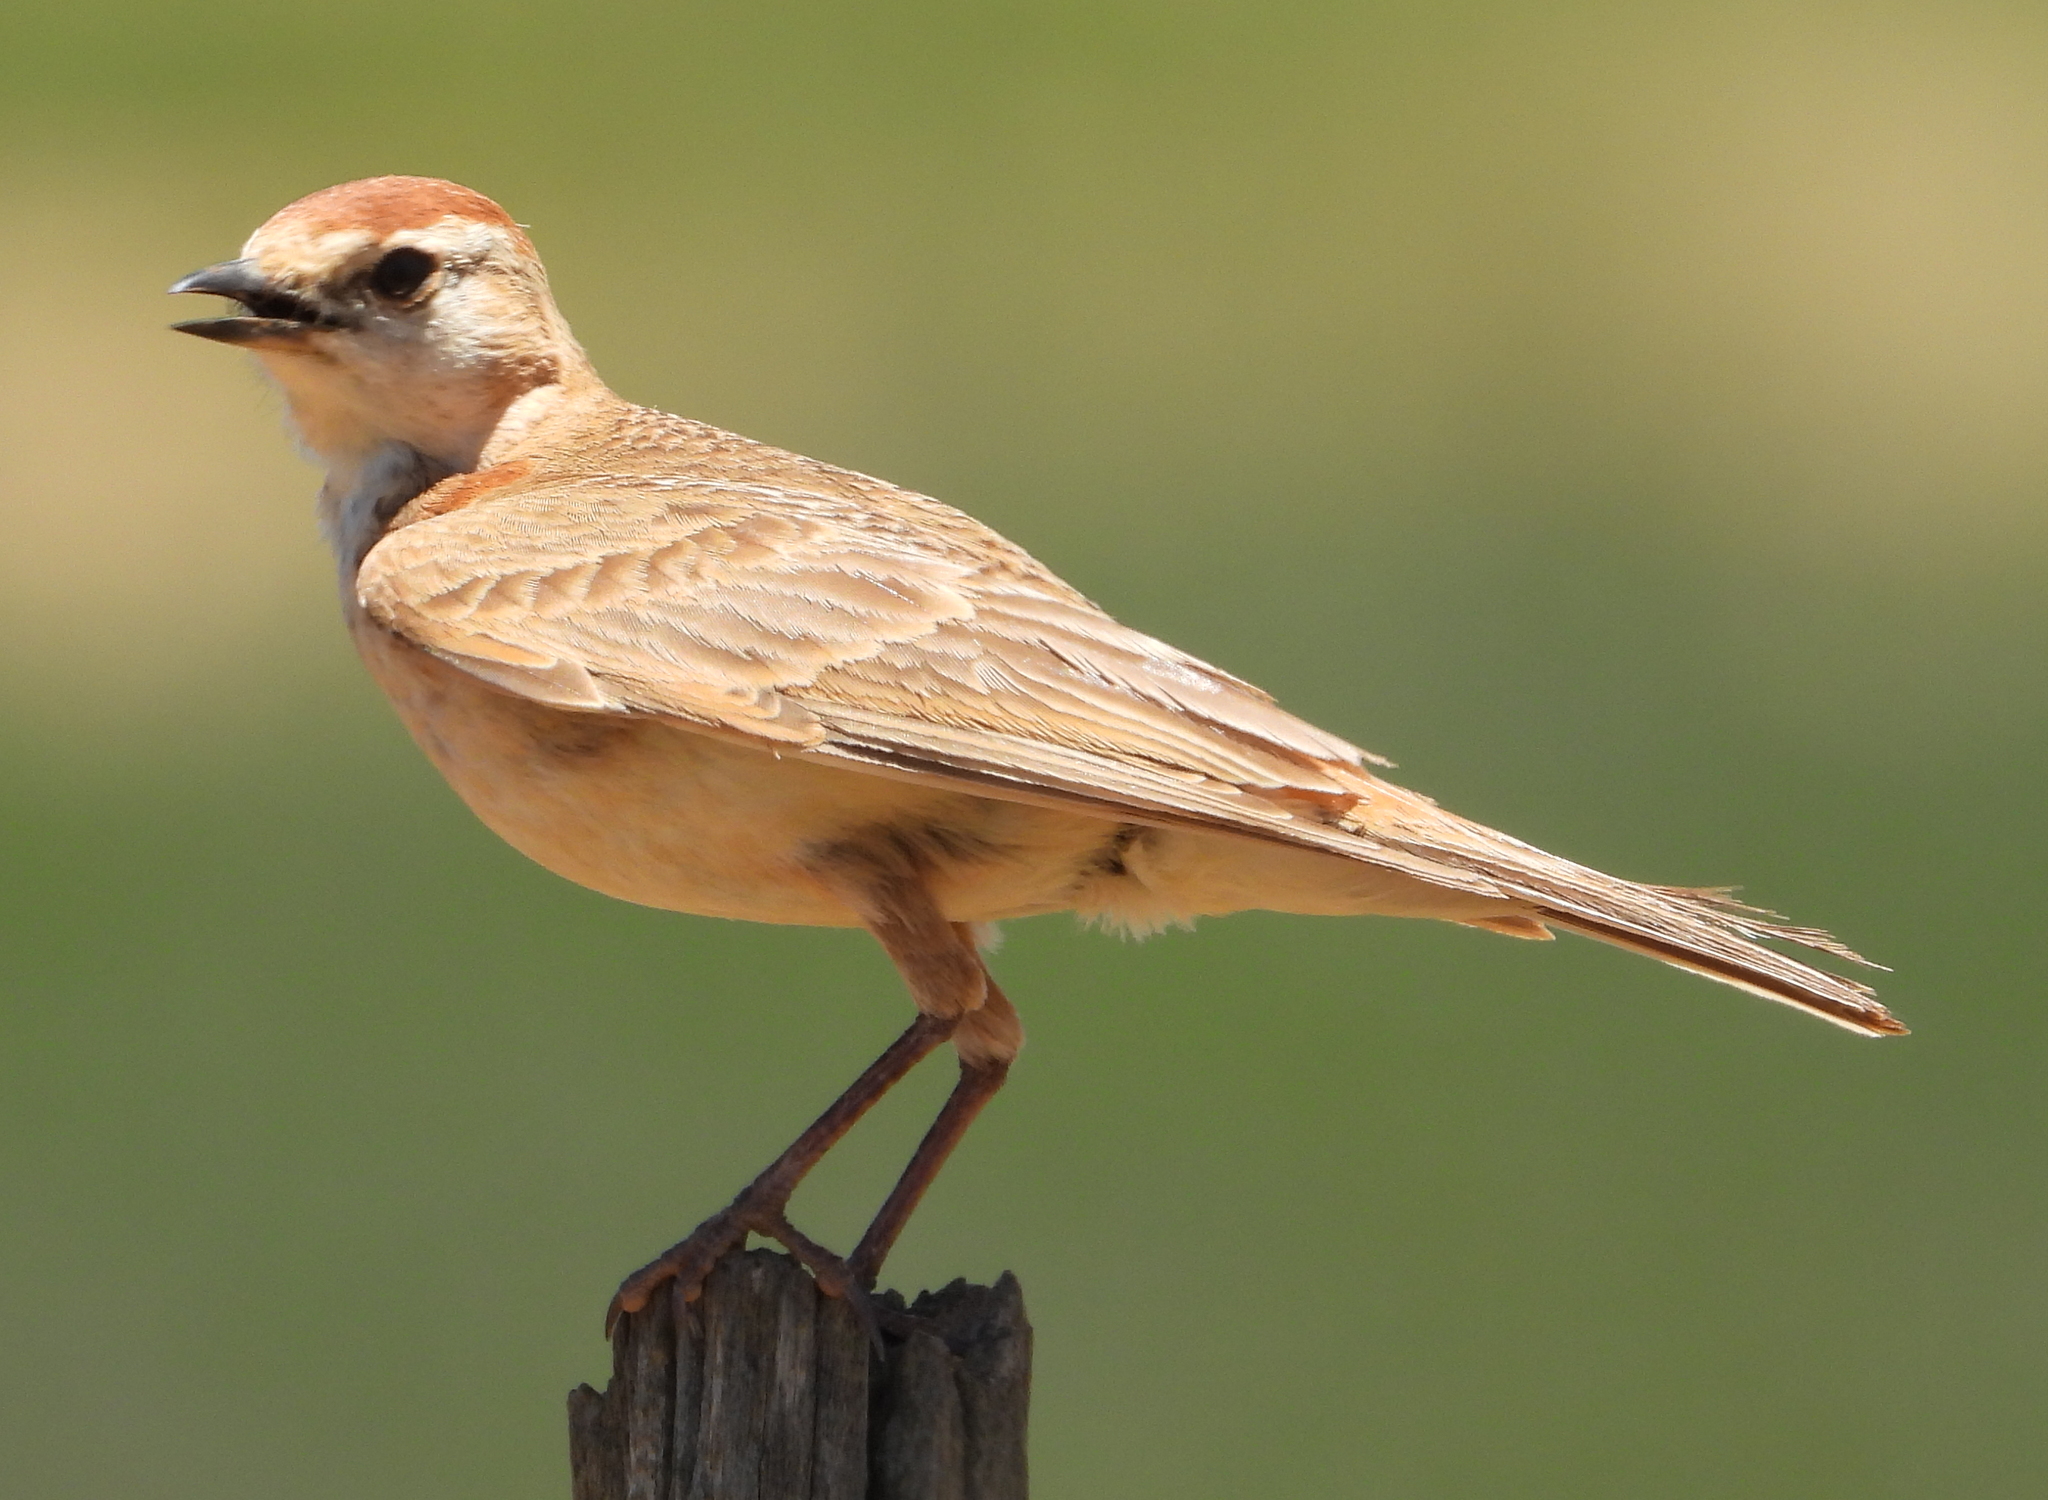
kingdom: Animalia
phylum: Chordata
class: Aves
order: Passeriformes
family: Alaudidae
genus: Calandrella
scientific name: Calandrella cinerea
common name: Red-capped lark
